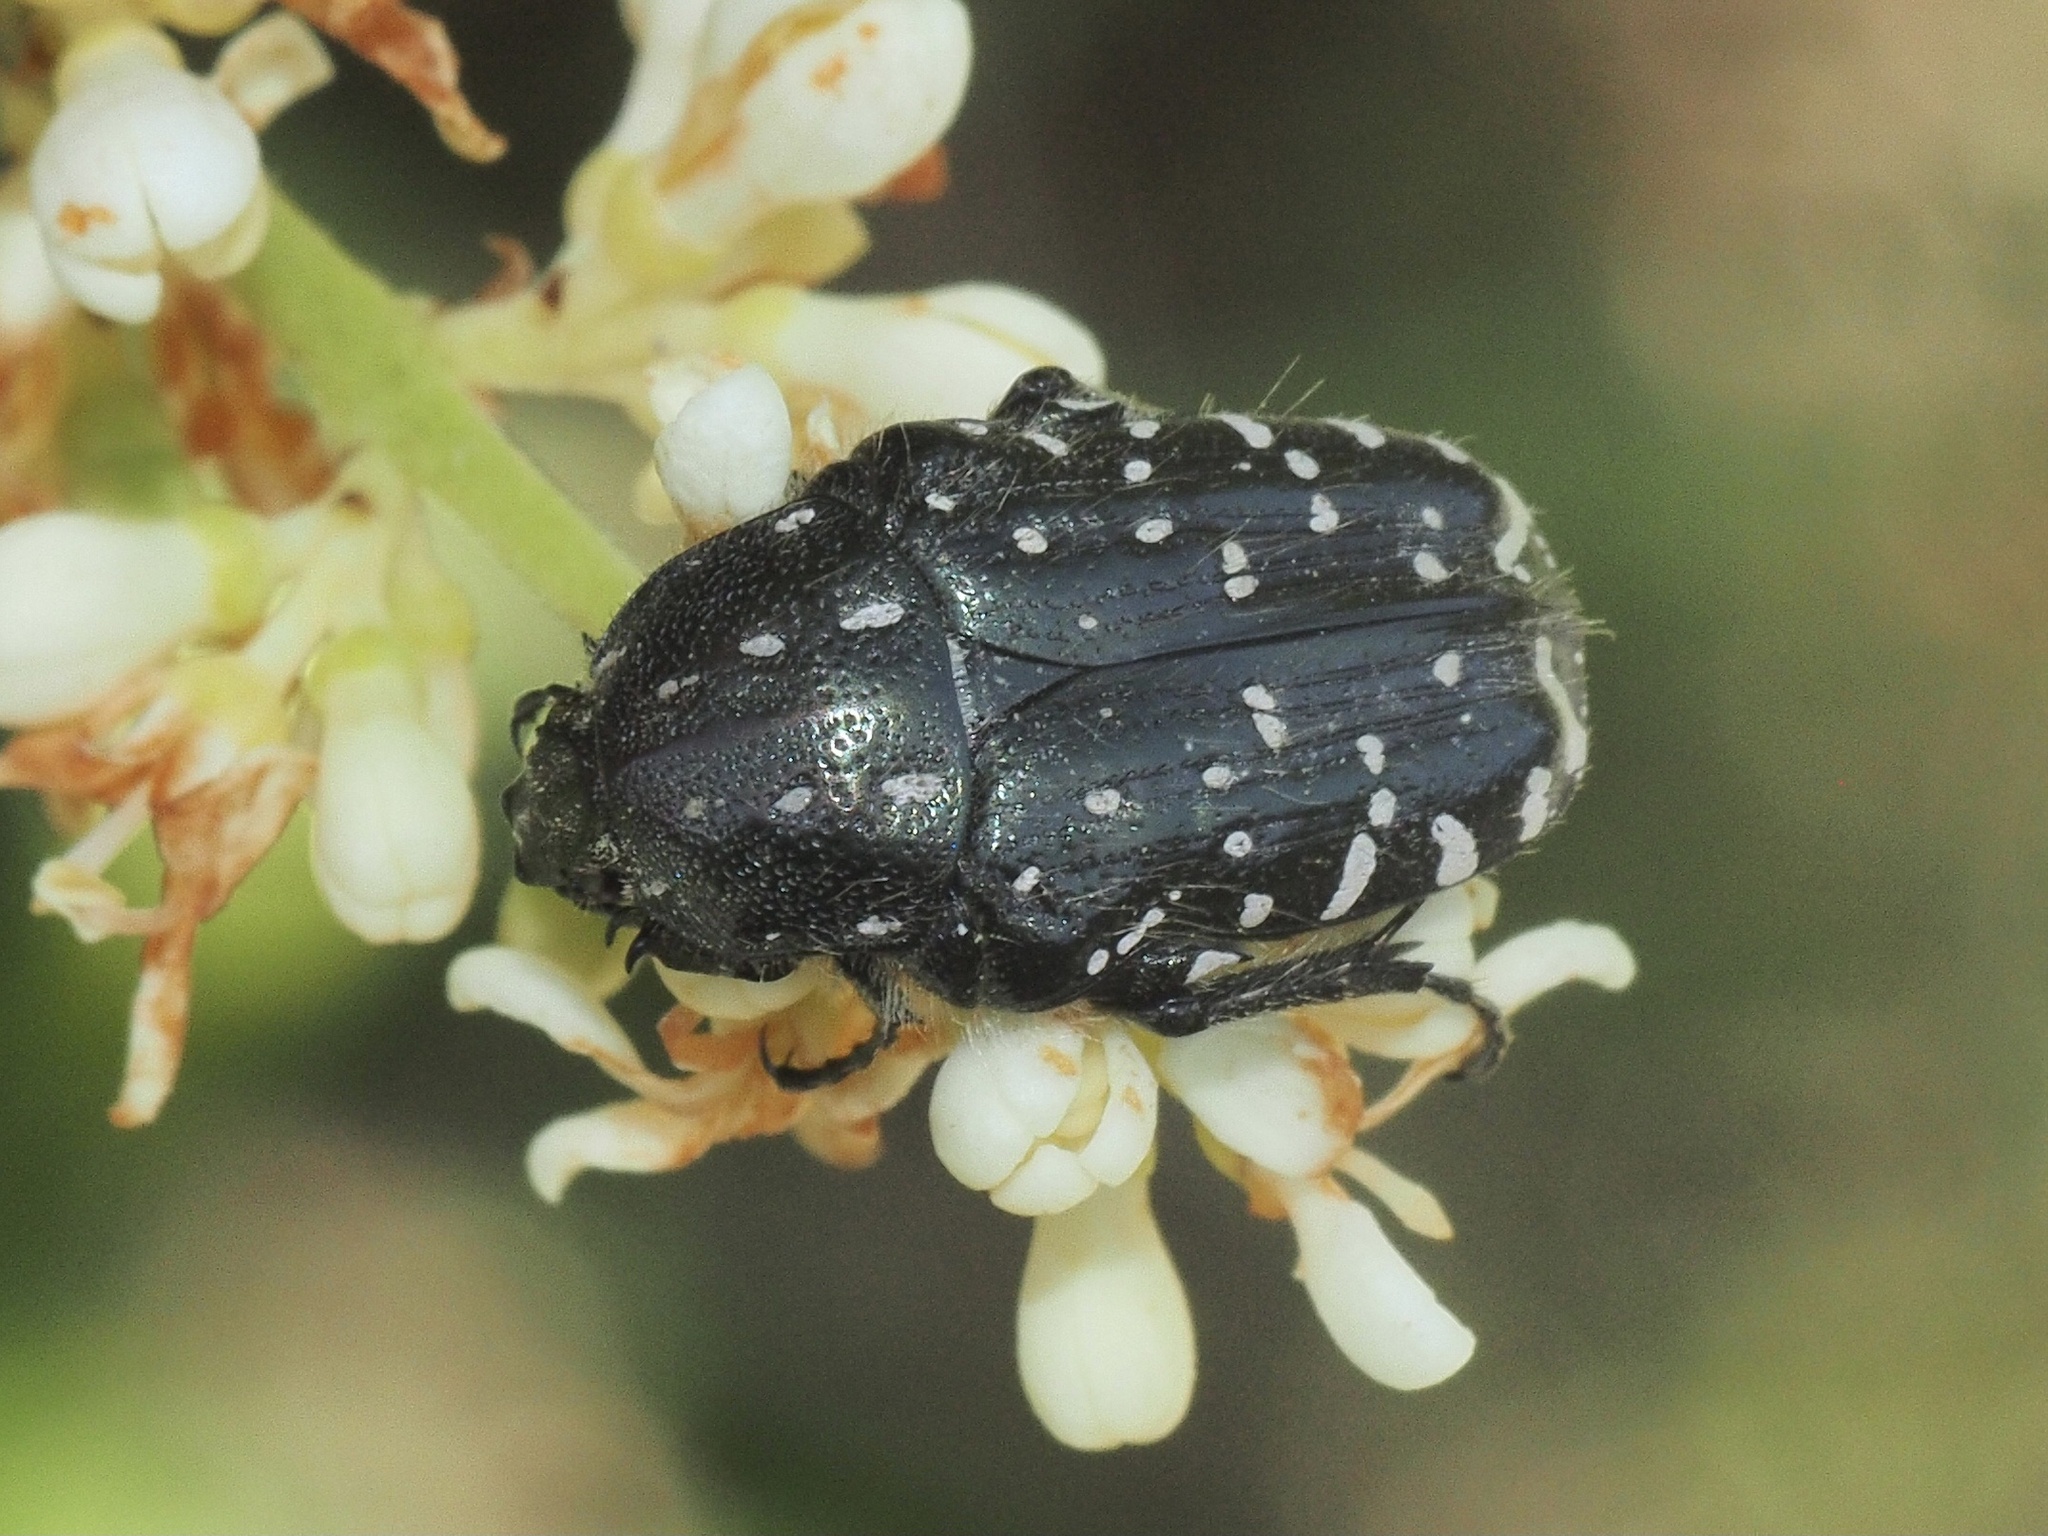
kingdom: Animalia
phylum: Arthropoda
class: Insecta
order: Coleoptera
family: Scarabaeidae
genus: Oxythyrea
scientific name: Oxythyrea funesta
